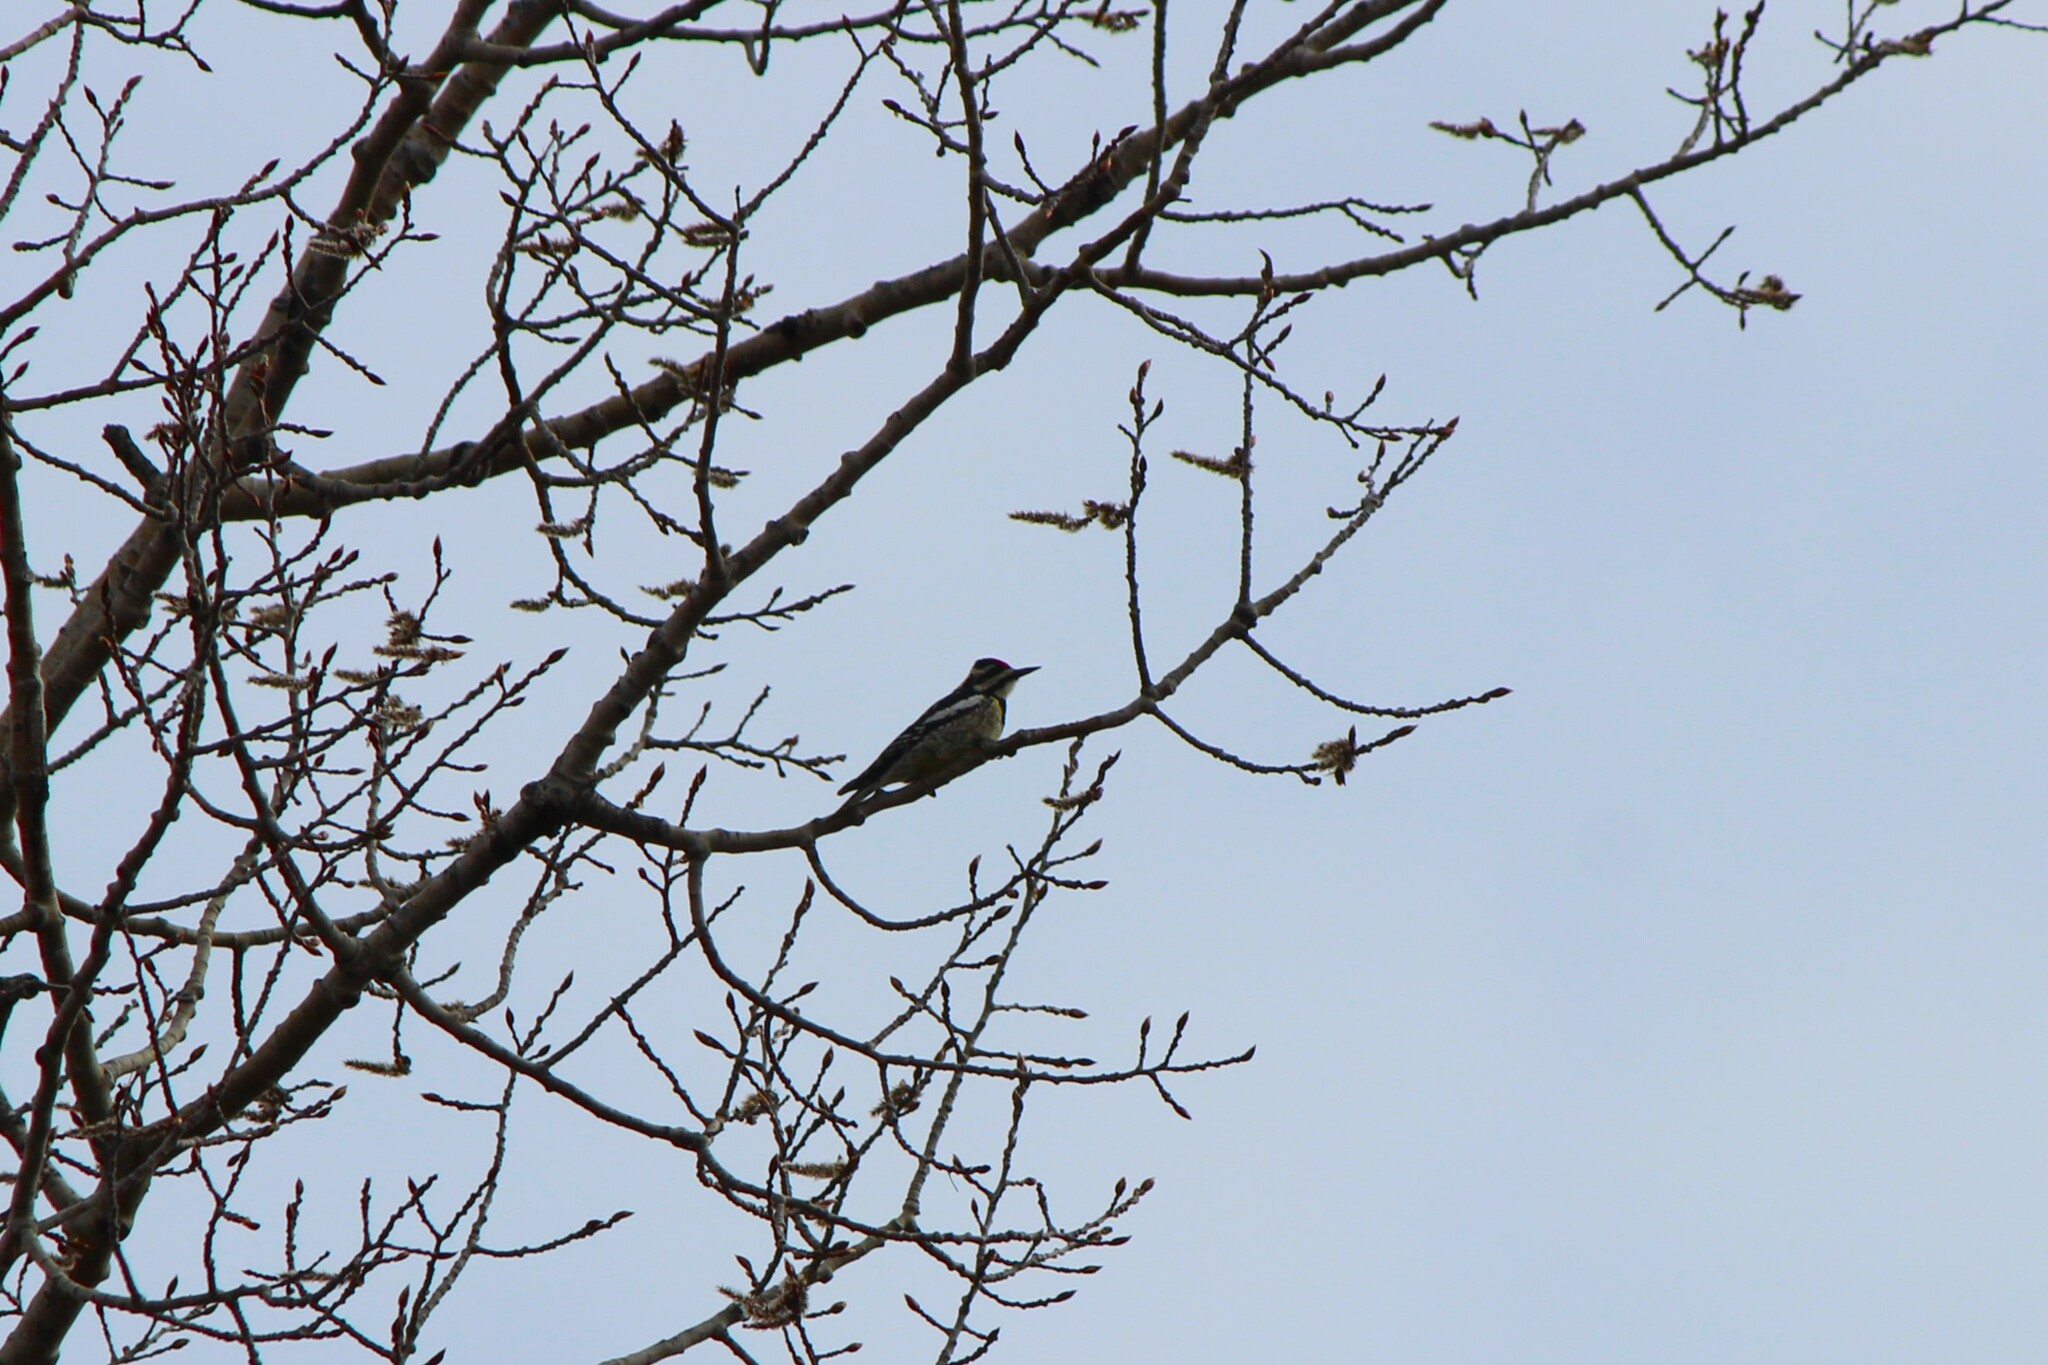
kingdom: Animalia
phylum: Chordata
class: Aves
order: Piciformes
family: Picidae
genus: Sphyrapicus
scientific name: Sphyrapicus varius
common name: Yellow-bellied sapsucker
